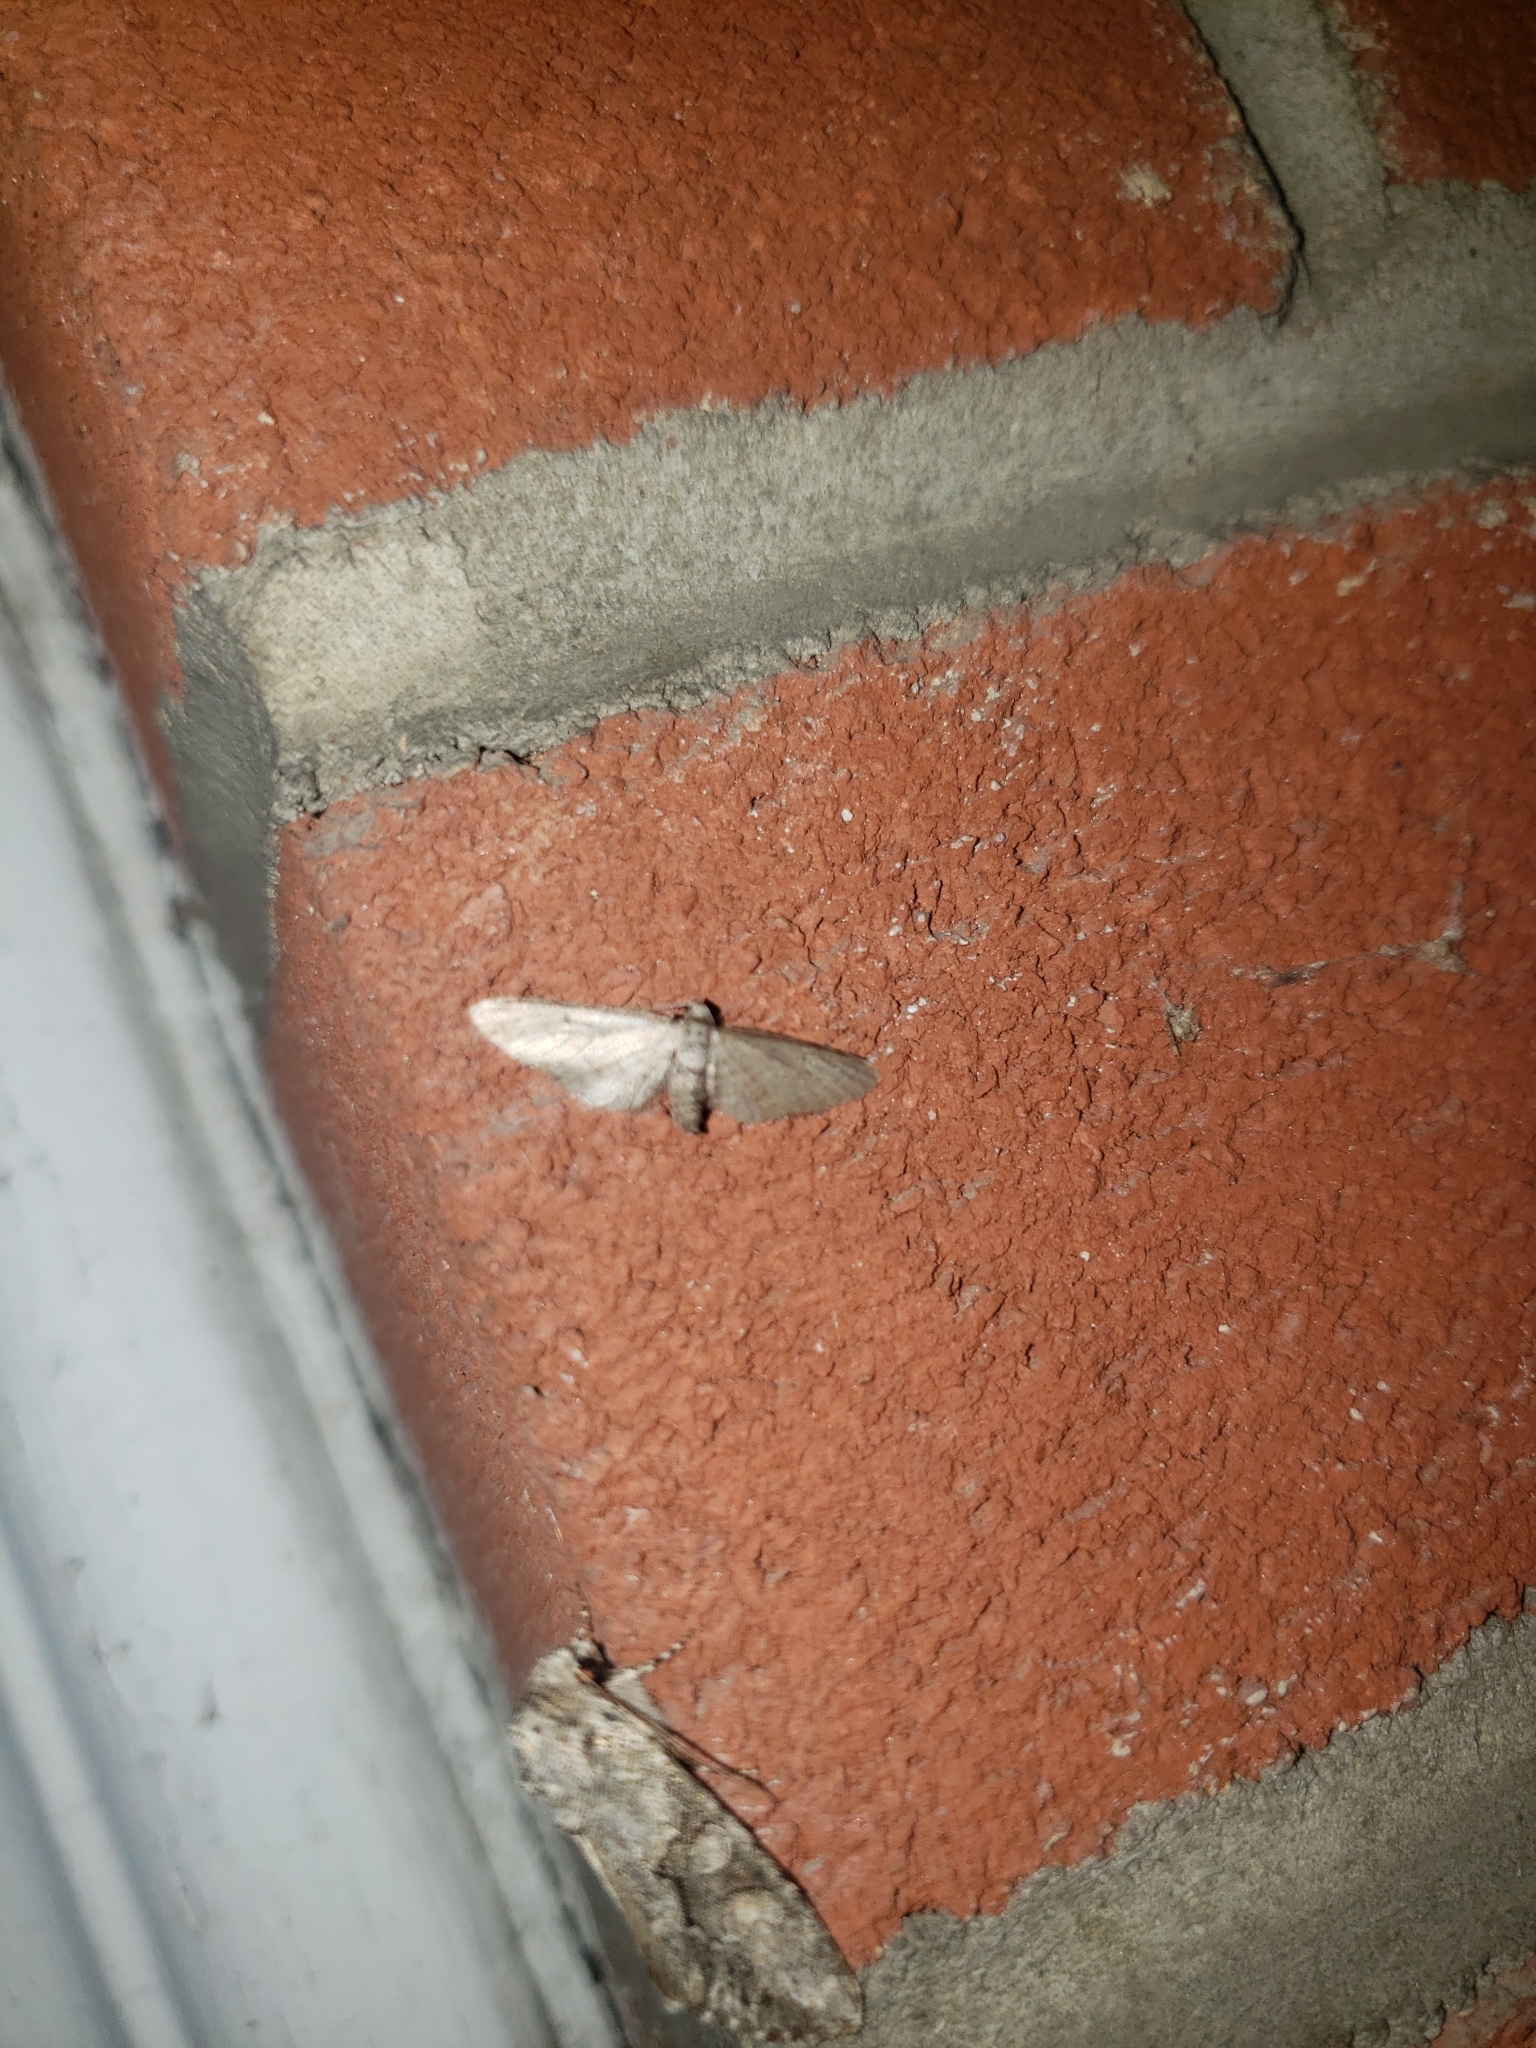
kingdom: Animalia
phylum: Arthropoda
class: Insecta
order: Lepidoptera
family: Noctuidae
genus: Achatia
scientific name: Achatia distincta
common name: Distinct quaker
